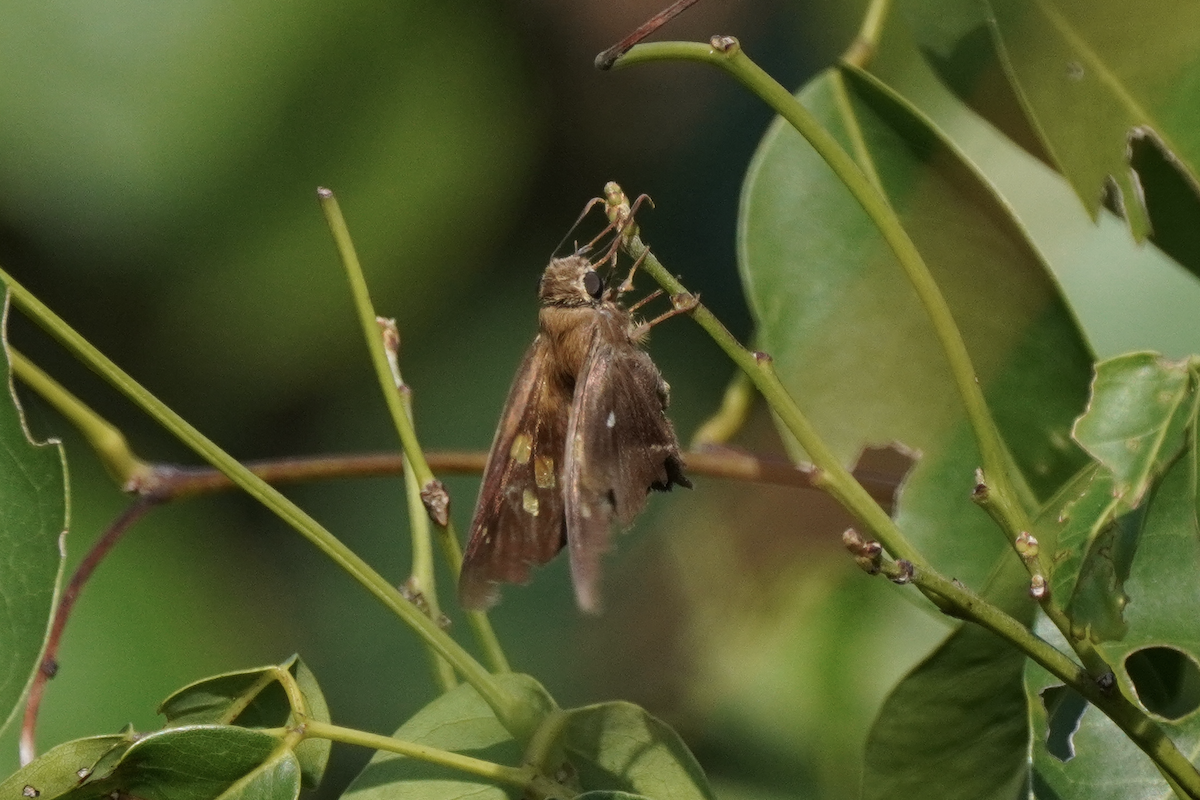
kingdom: Animalia
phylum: Arthropoda
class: Insecta
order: Lepidoptera
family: Hesperiidae
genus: Hasora
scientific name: Hasora badra
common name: Common awl
